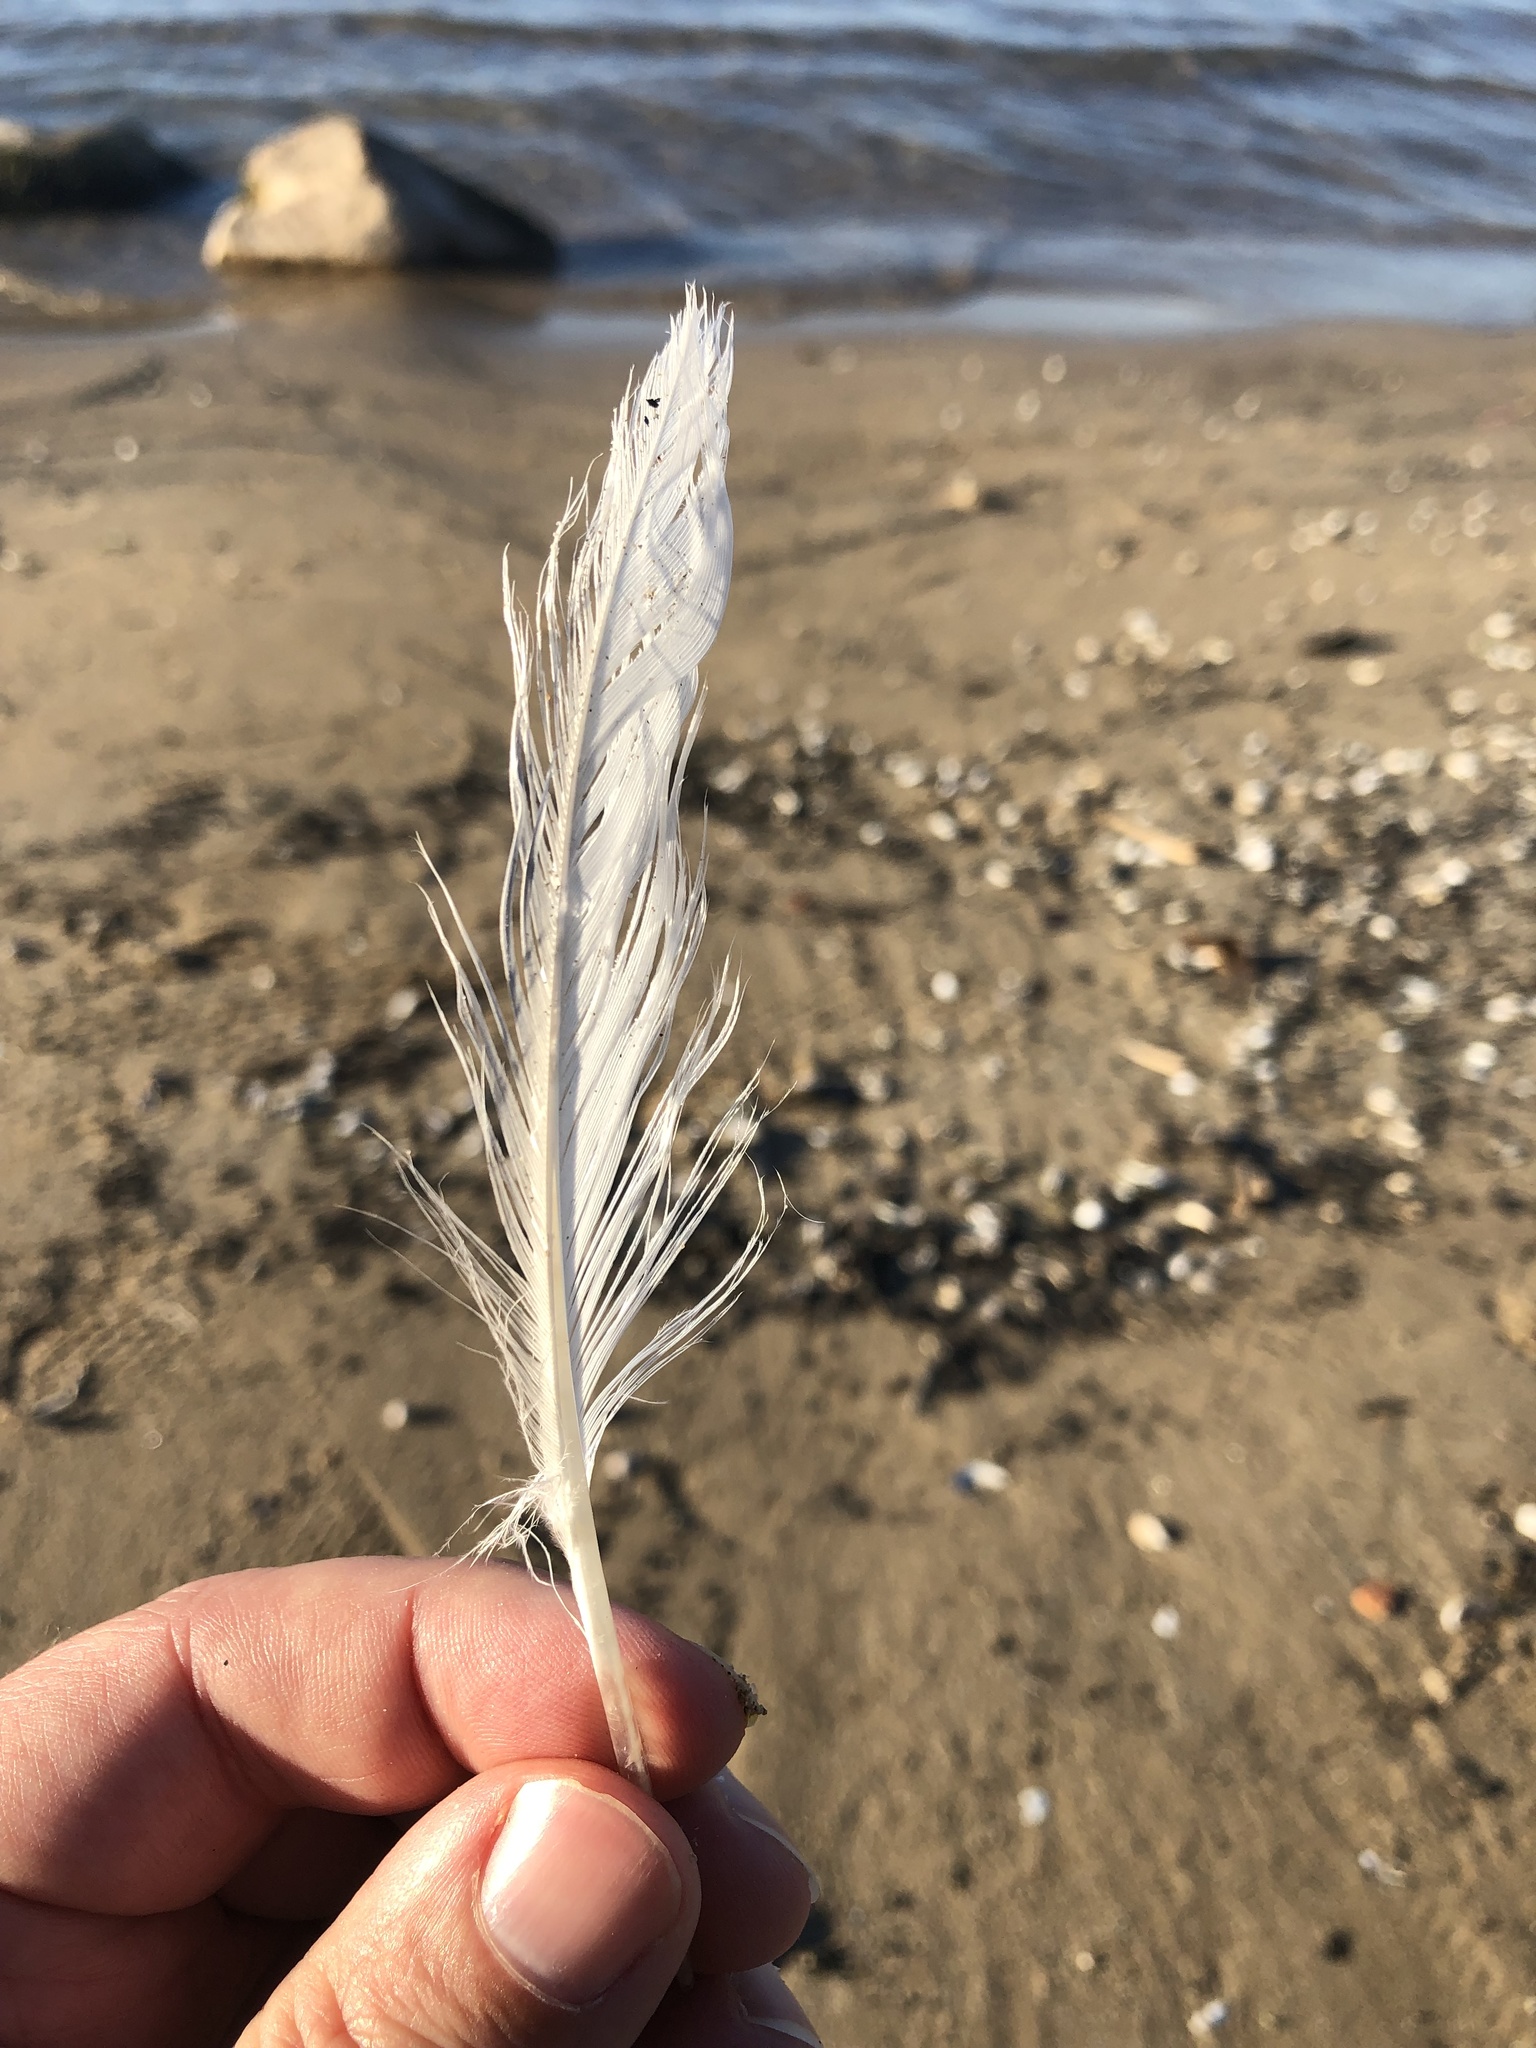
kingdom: Animalia
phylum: Chordata
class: Aves
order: Charadriiformes
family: Laridae
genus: Larus
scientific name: Larus delawarensis
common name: Ring-billed gull
